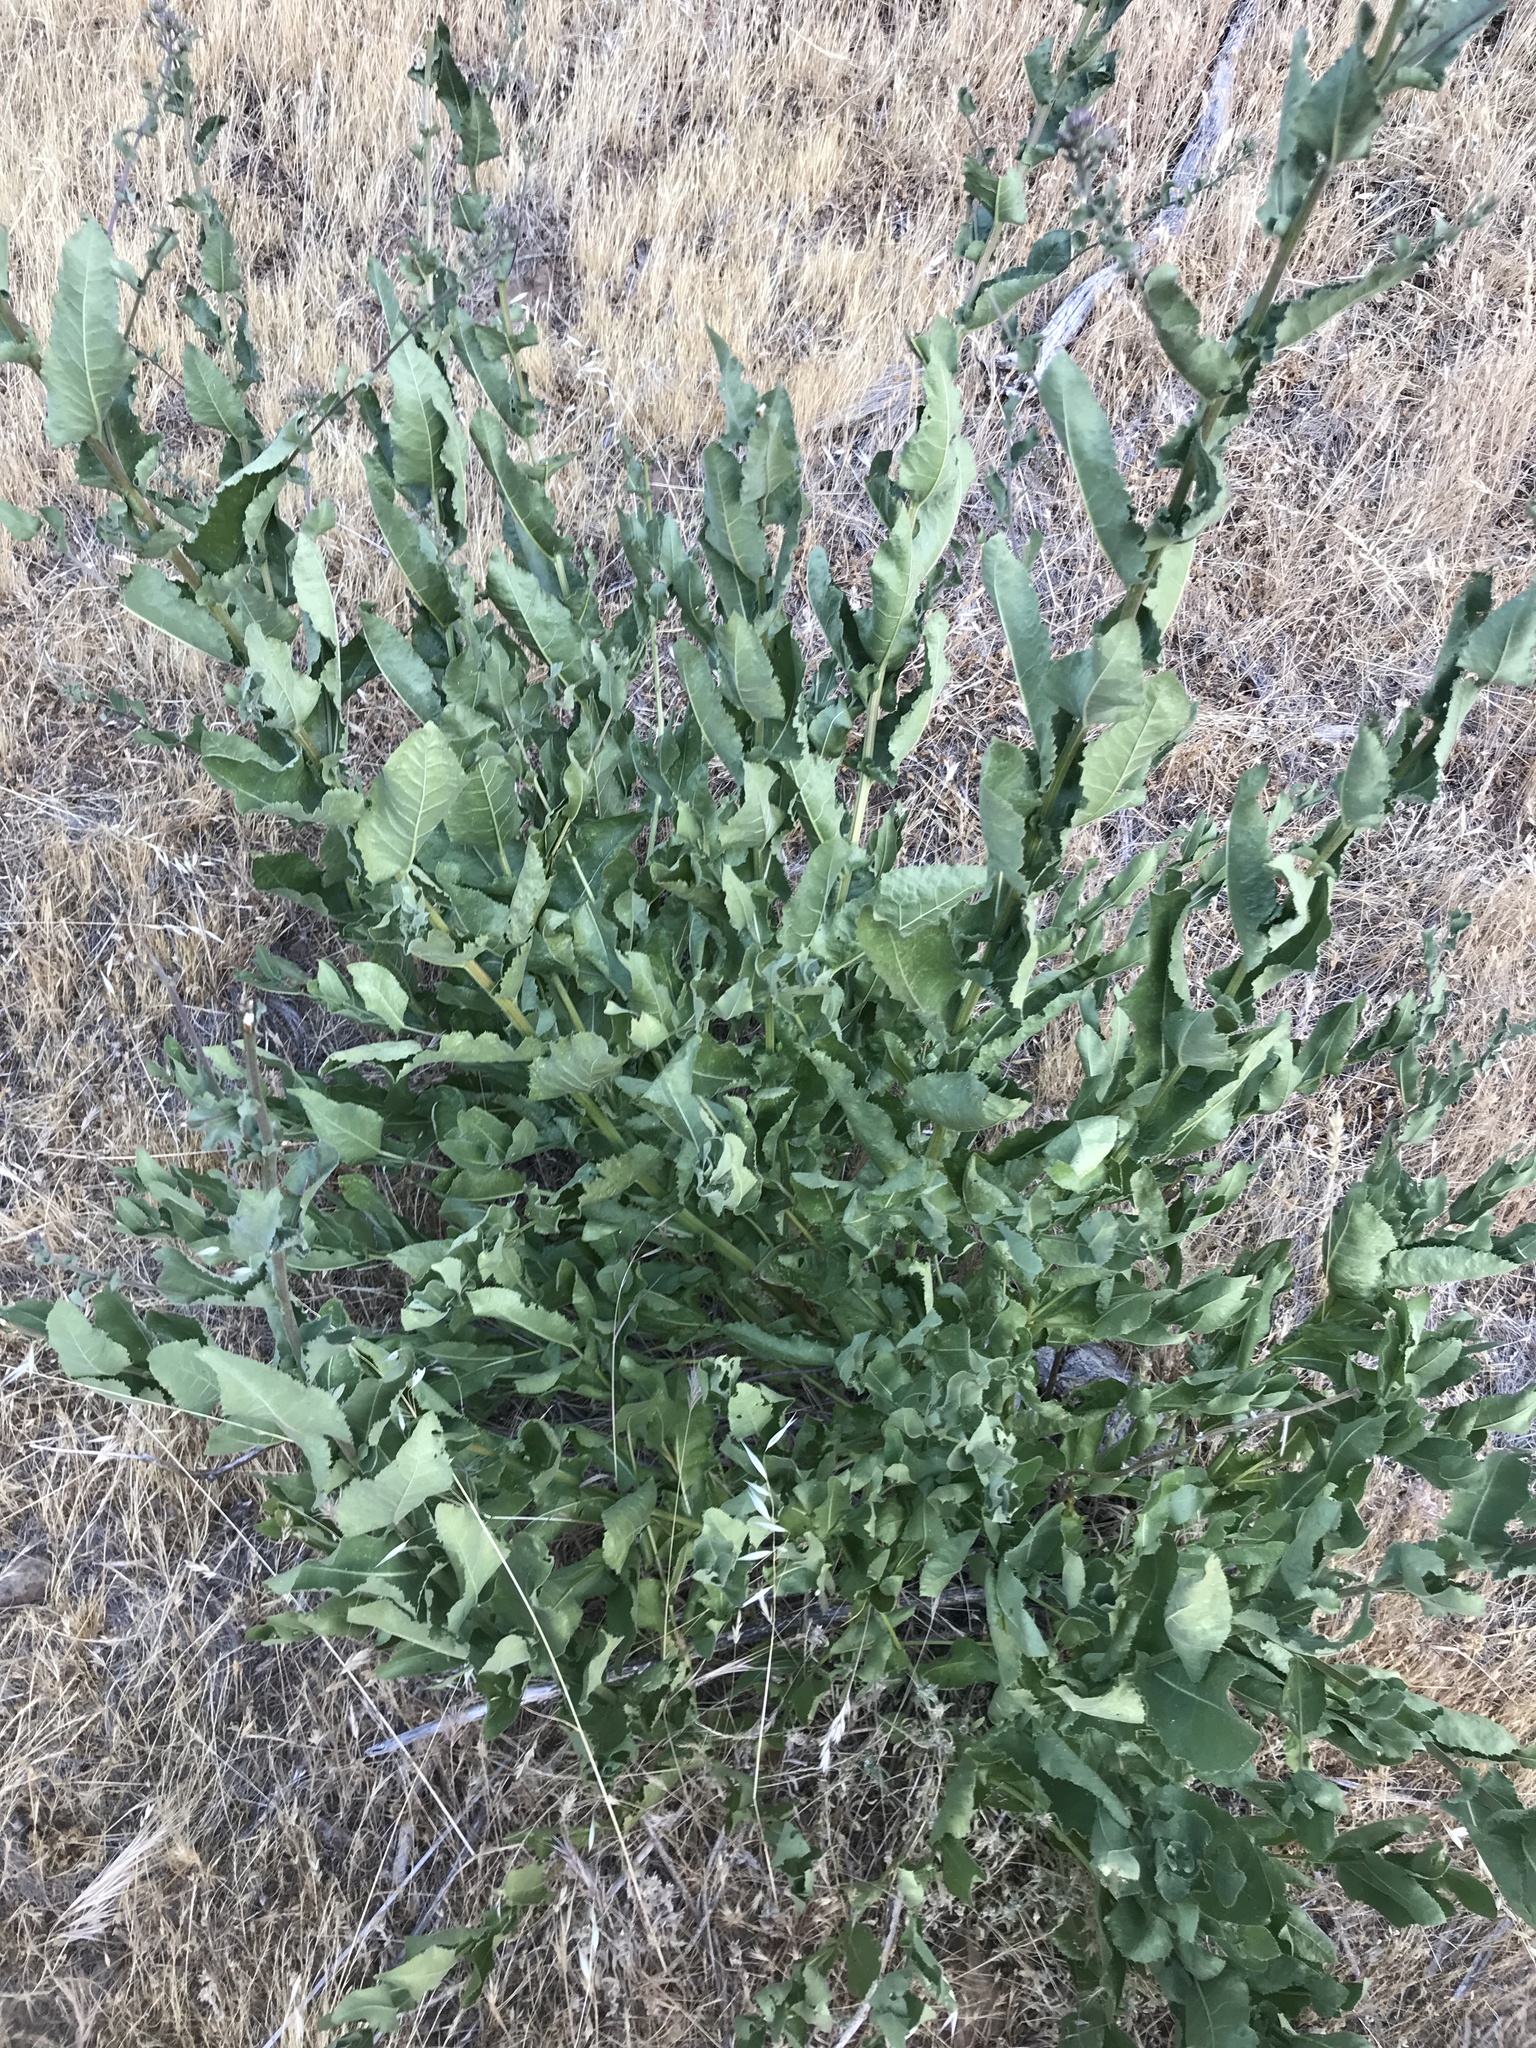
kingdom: Plantae
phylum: Tracheophyta
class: Magnoliopsida
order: Asterales
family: Asteraceae
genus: Acourtia
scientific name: Acourtia microcephala
